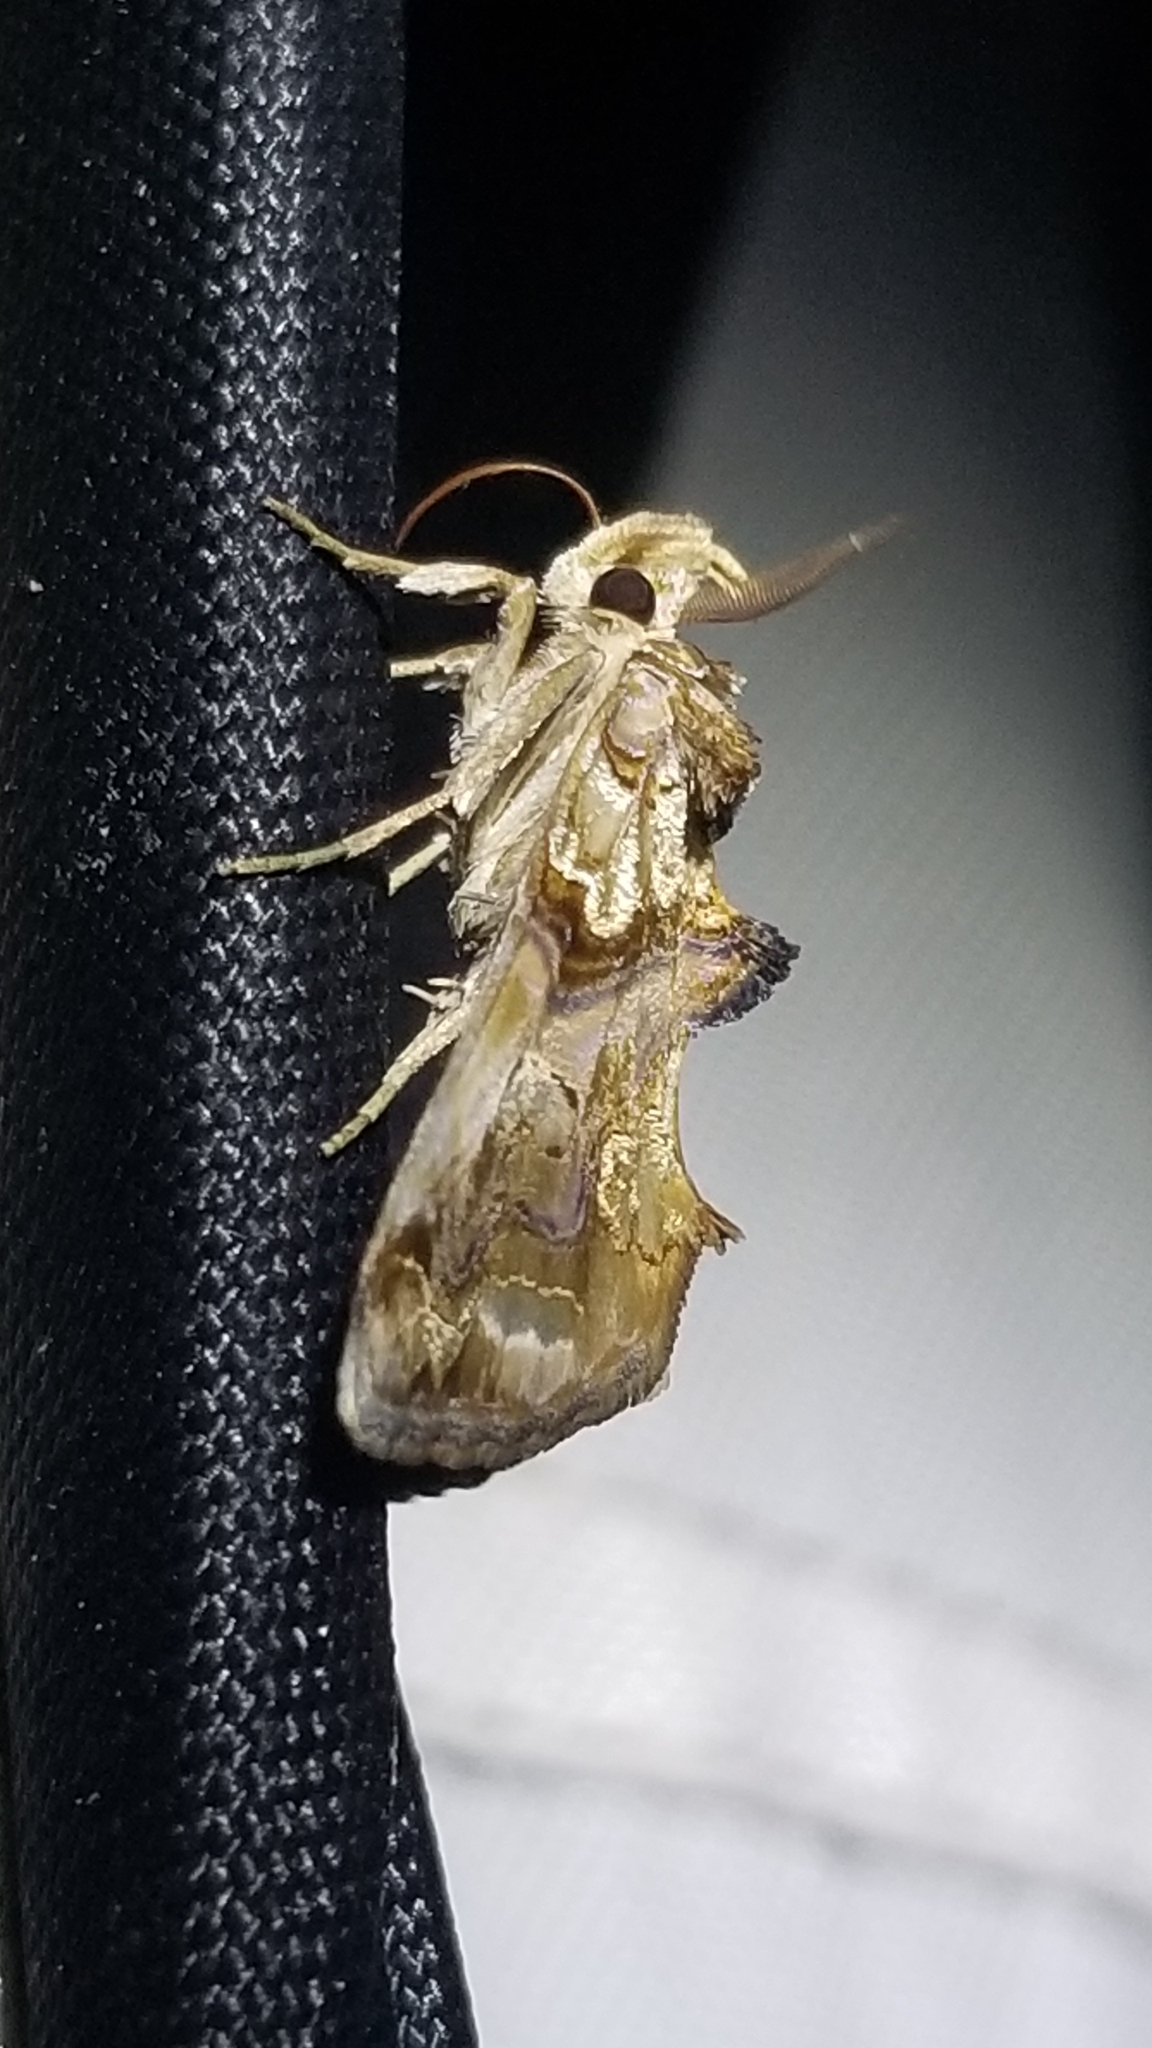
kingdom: Animalia
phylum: Arthropoda
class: Insecta
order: Lepidoptera
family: Erebidae
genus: Plusiodonta
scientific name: Plusiodonta compressipalpis
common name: Moonseed moth
